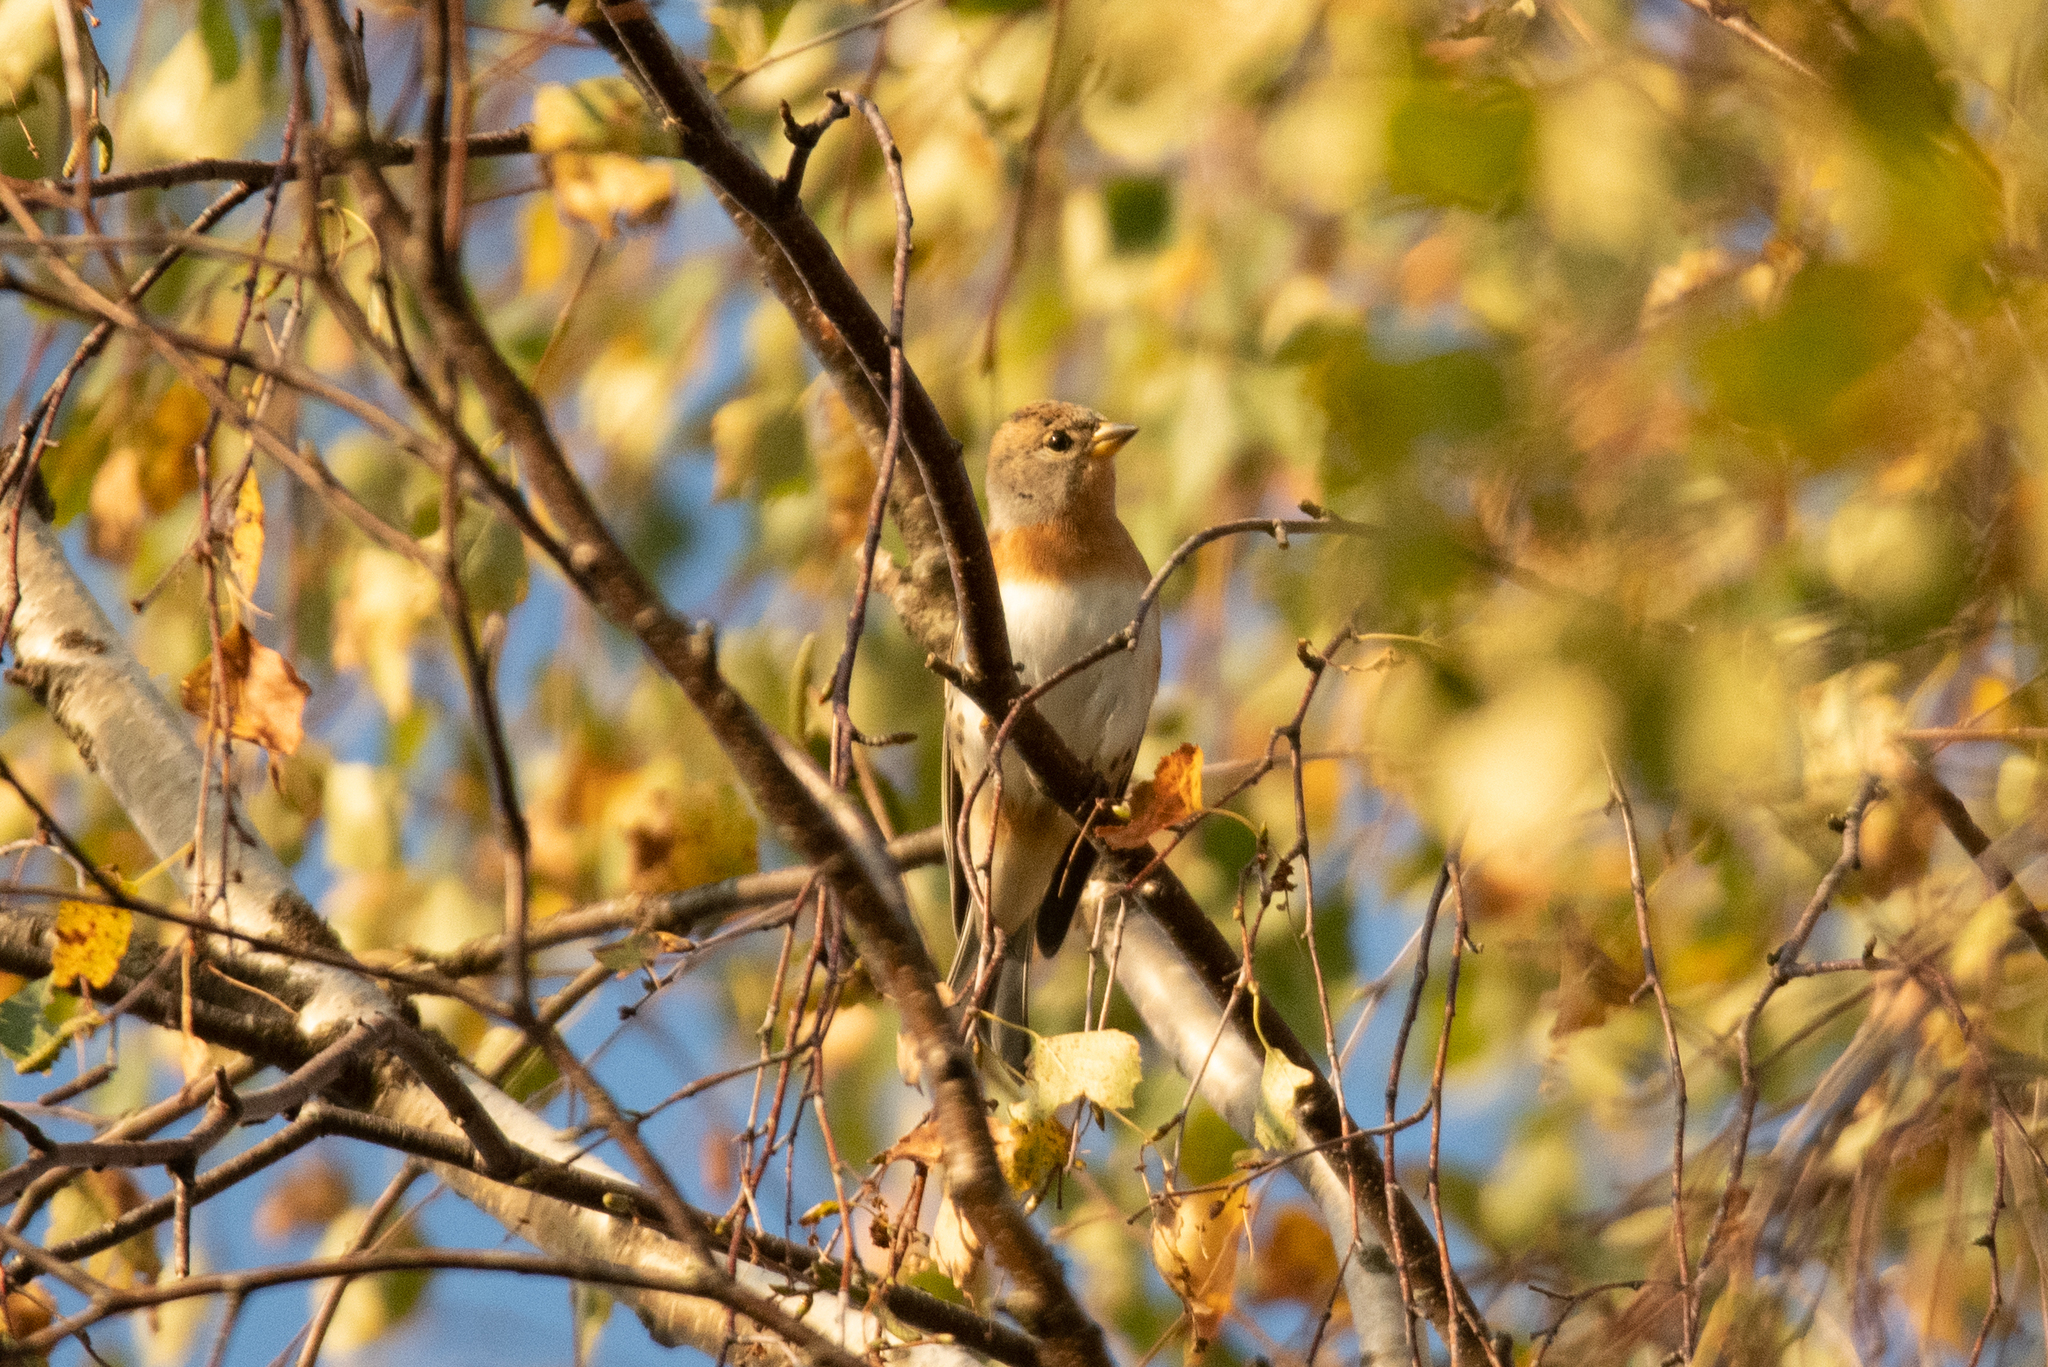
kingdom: Animalia
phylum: Chordata
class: Aves
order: Passeriformes
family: Fringillidae
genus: Fringilla
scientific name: Fringilla montifringilla
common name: Brambling
